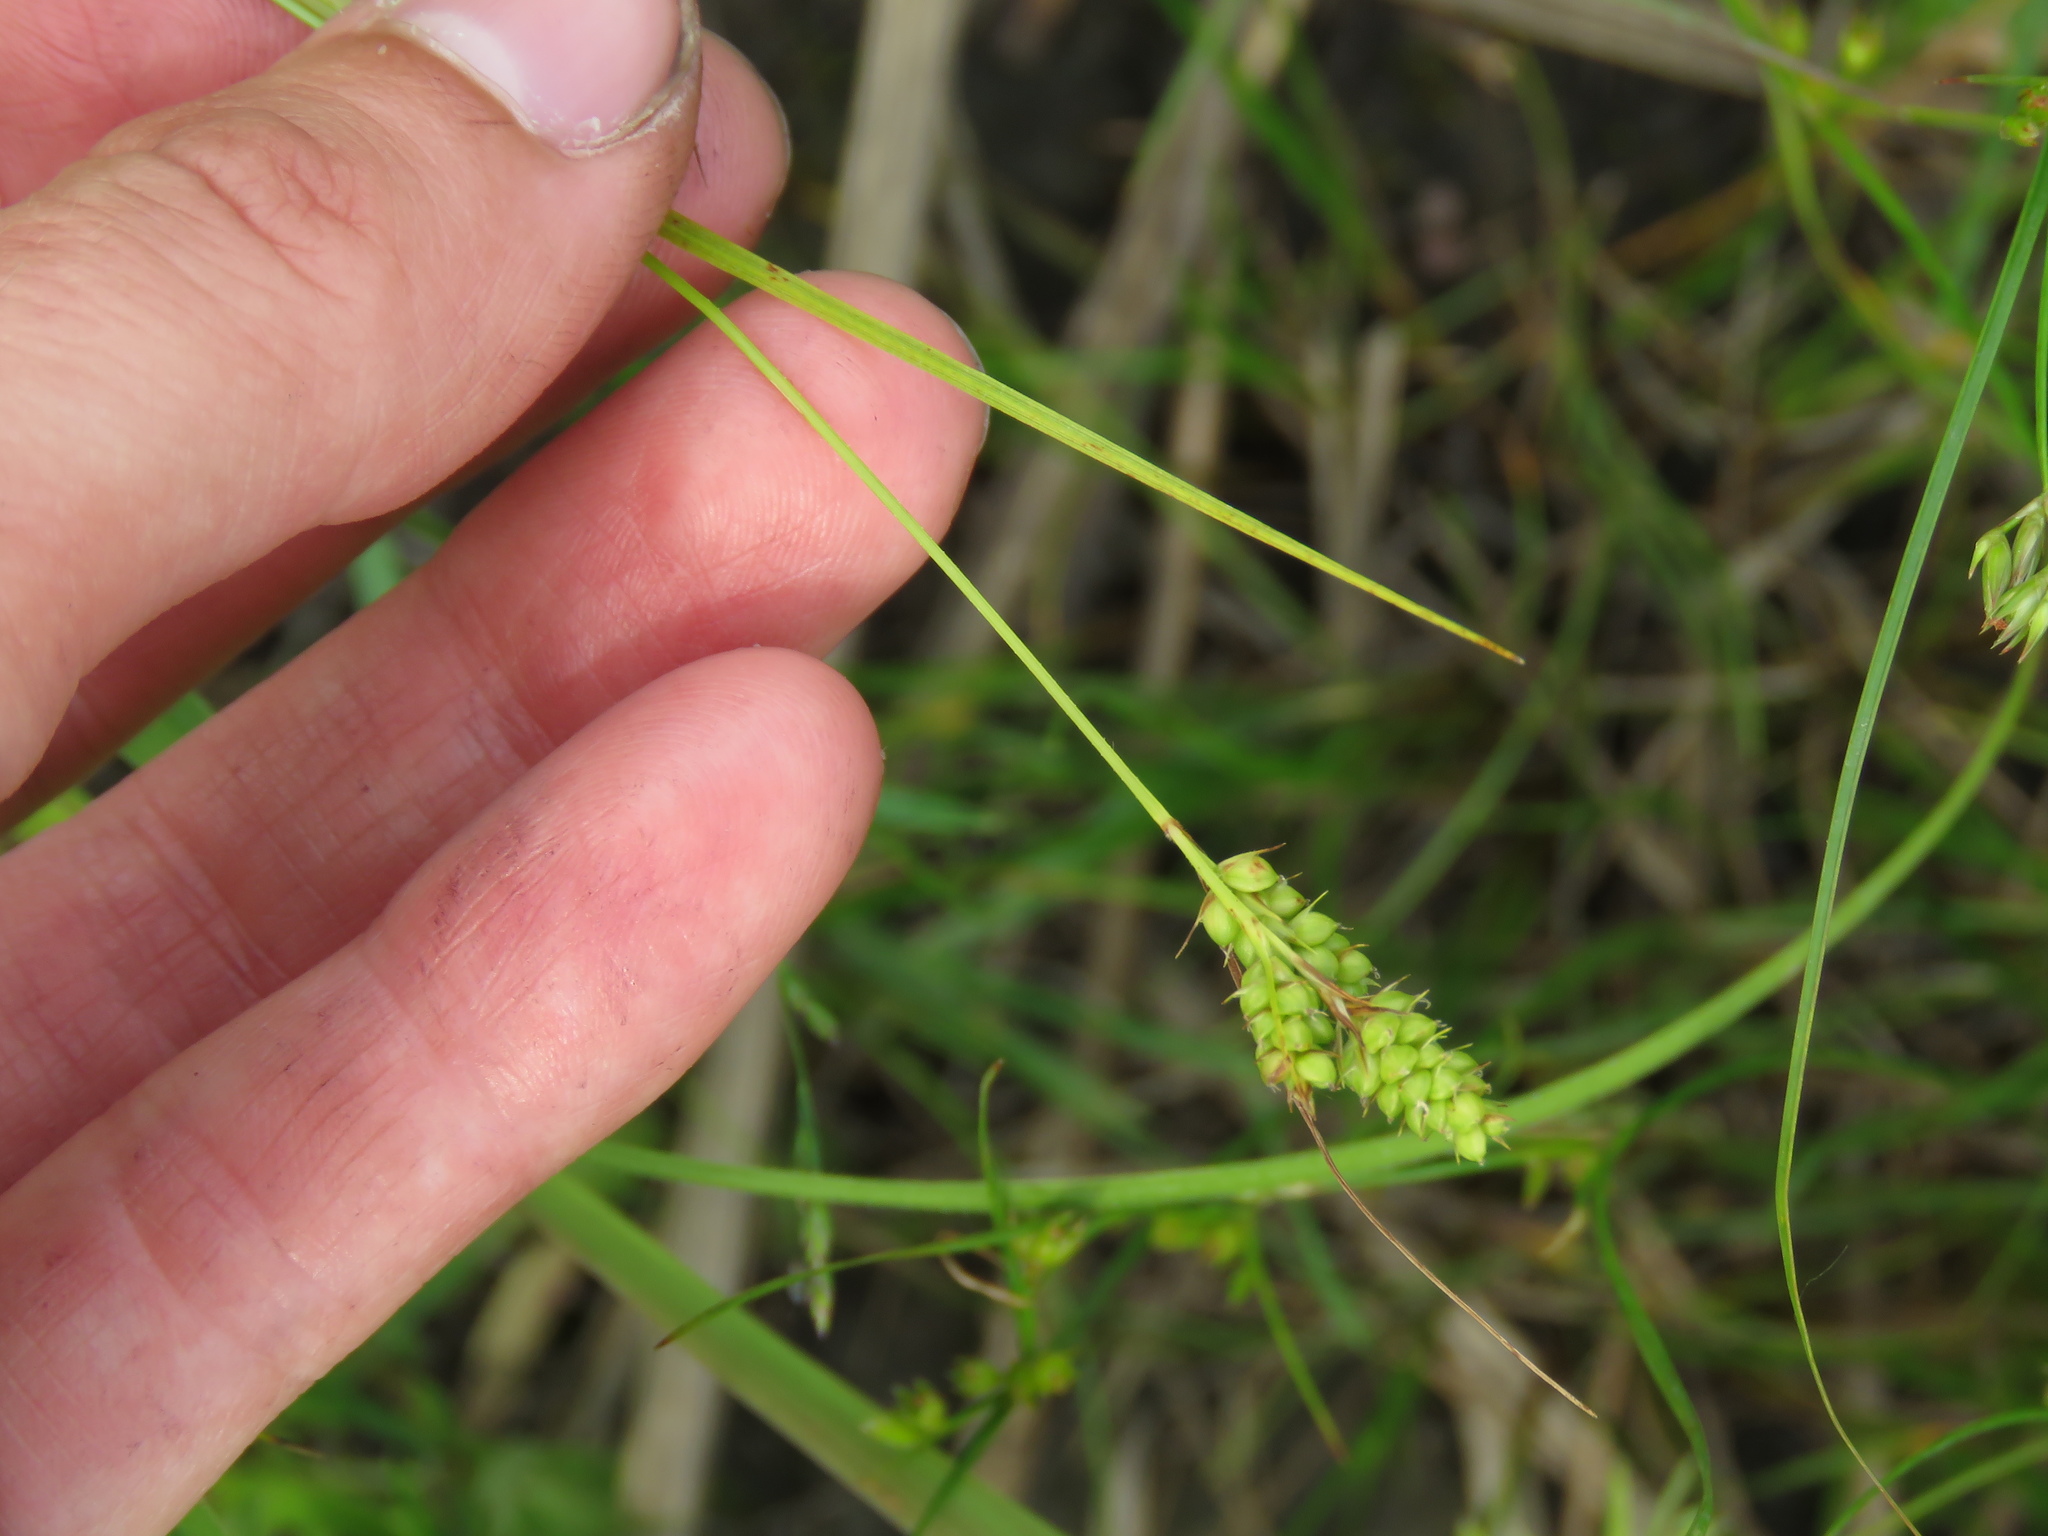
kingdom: Plantae
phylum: Tracheophyta
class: Liliopsida
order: Poales
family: Cyperaceae
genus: Carex
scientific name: Carex bushii
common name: Bush's sedge
